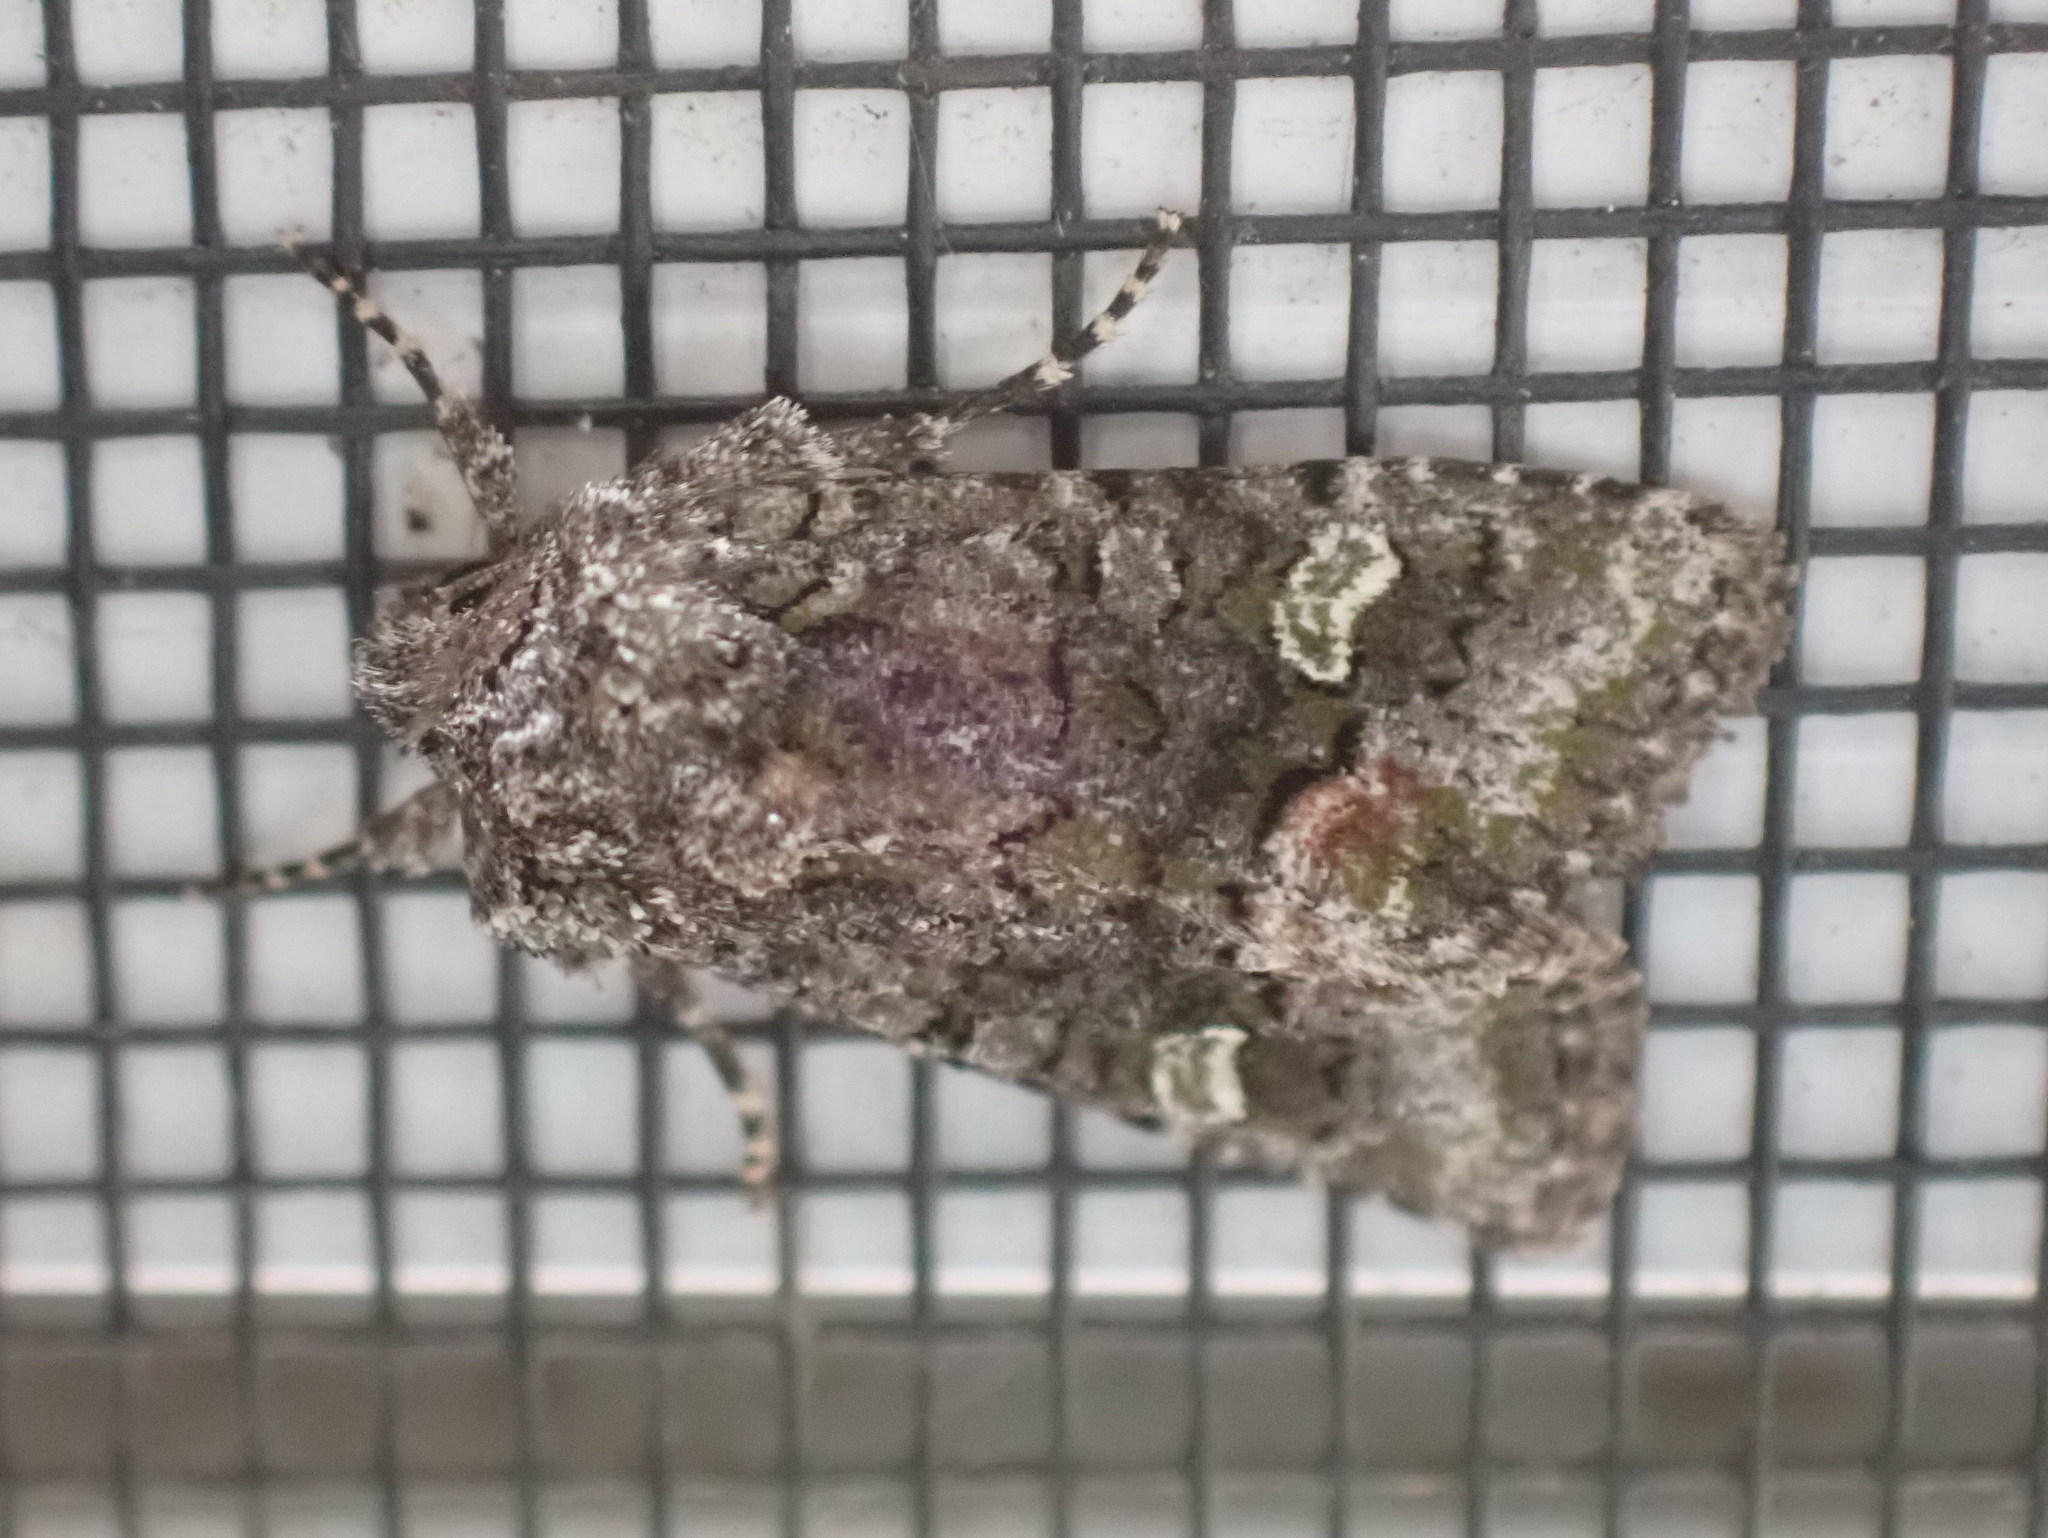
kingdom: Animalia
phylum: Arthropoda
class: Insecta
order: Lepidoptera
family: Noctuidae
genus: Lacinipolia
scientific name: Lacinipolia olivacea
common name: Olive arches moth
